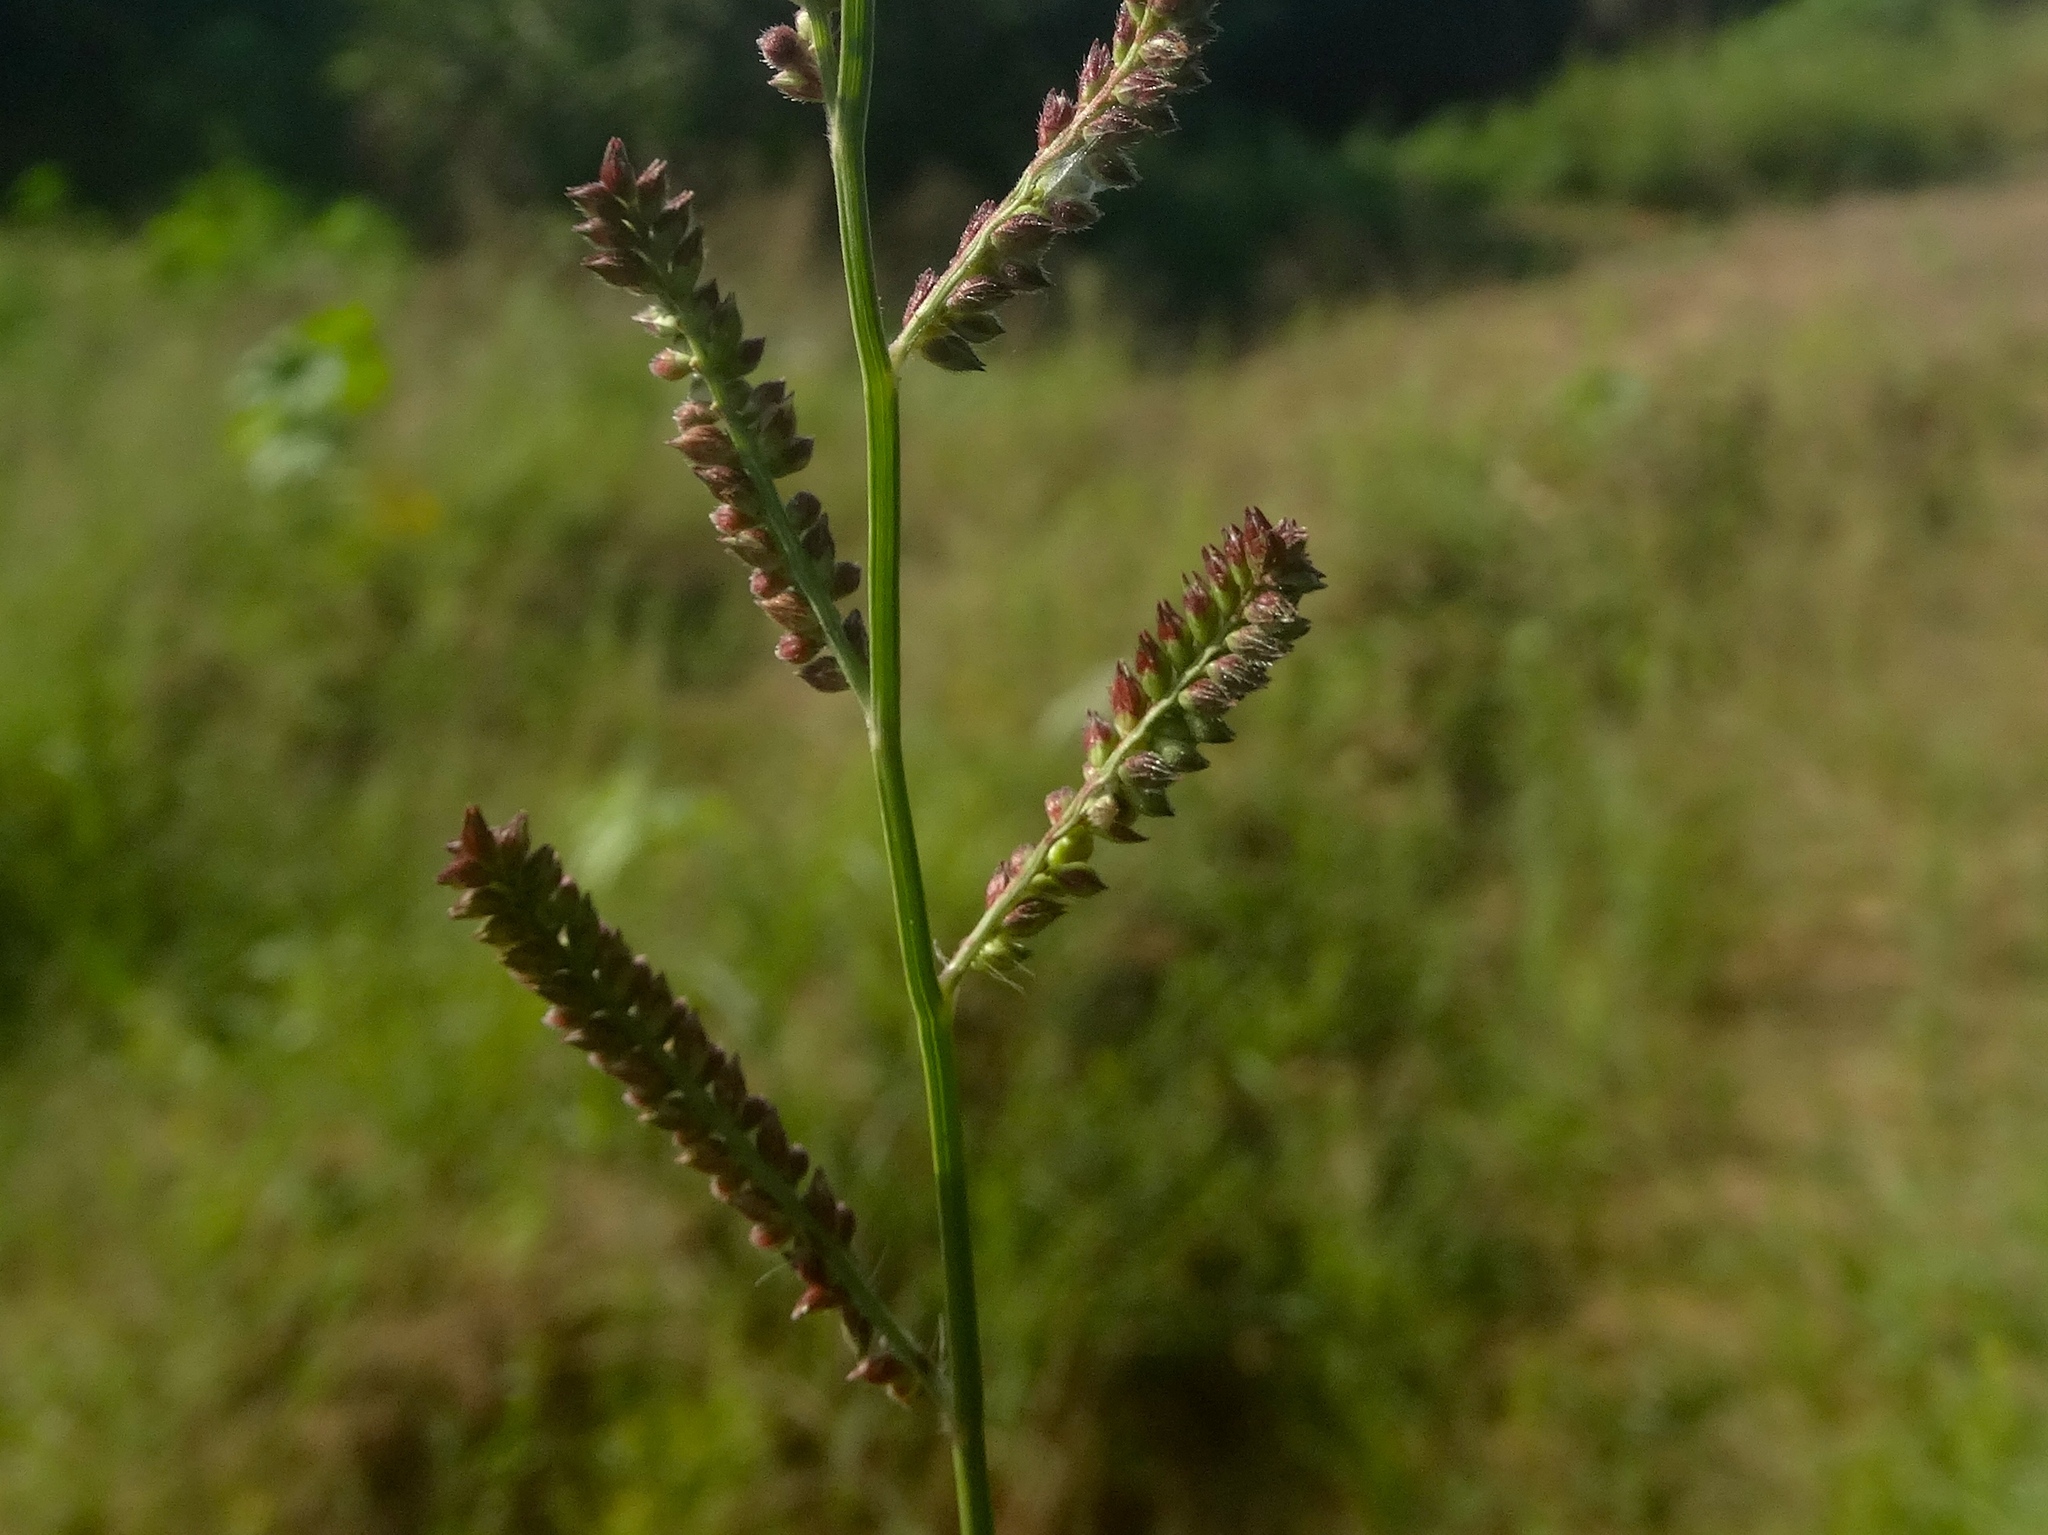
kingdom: Plantae
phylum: Tracheophyta
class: Liliopsida
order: Poales
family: Poaceae
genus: Echinochloa
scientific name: Echinochloa crus-galli
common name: Cockspur
